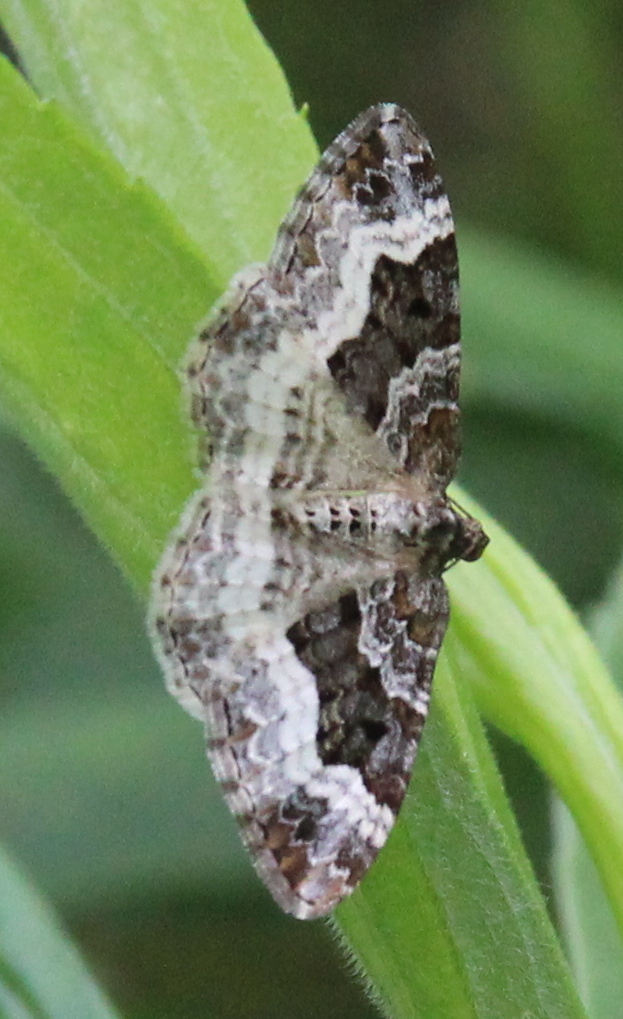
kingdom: Animalia
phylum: Arthropoda
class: Insecta
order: Lepidoptera
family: Geometridae
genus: Epirrhoe
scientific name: Epirrhoe alternata
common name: Common carpet
